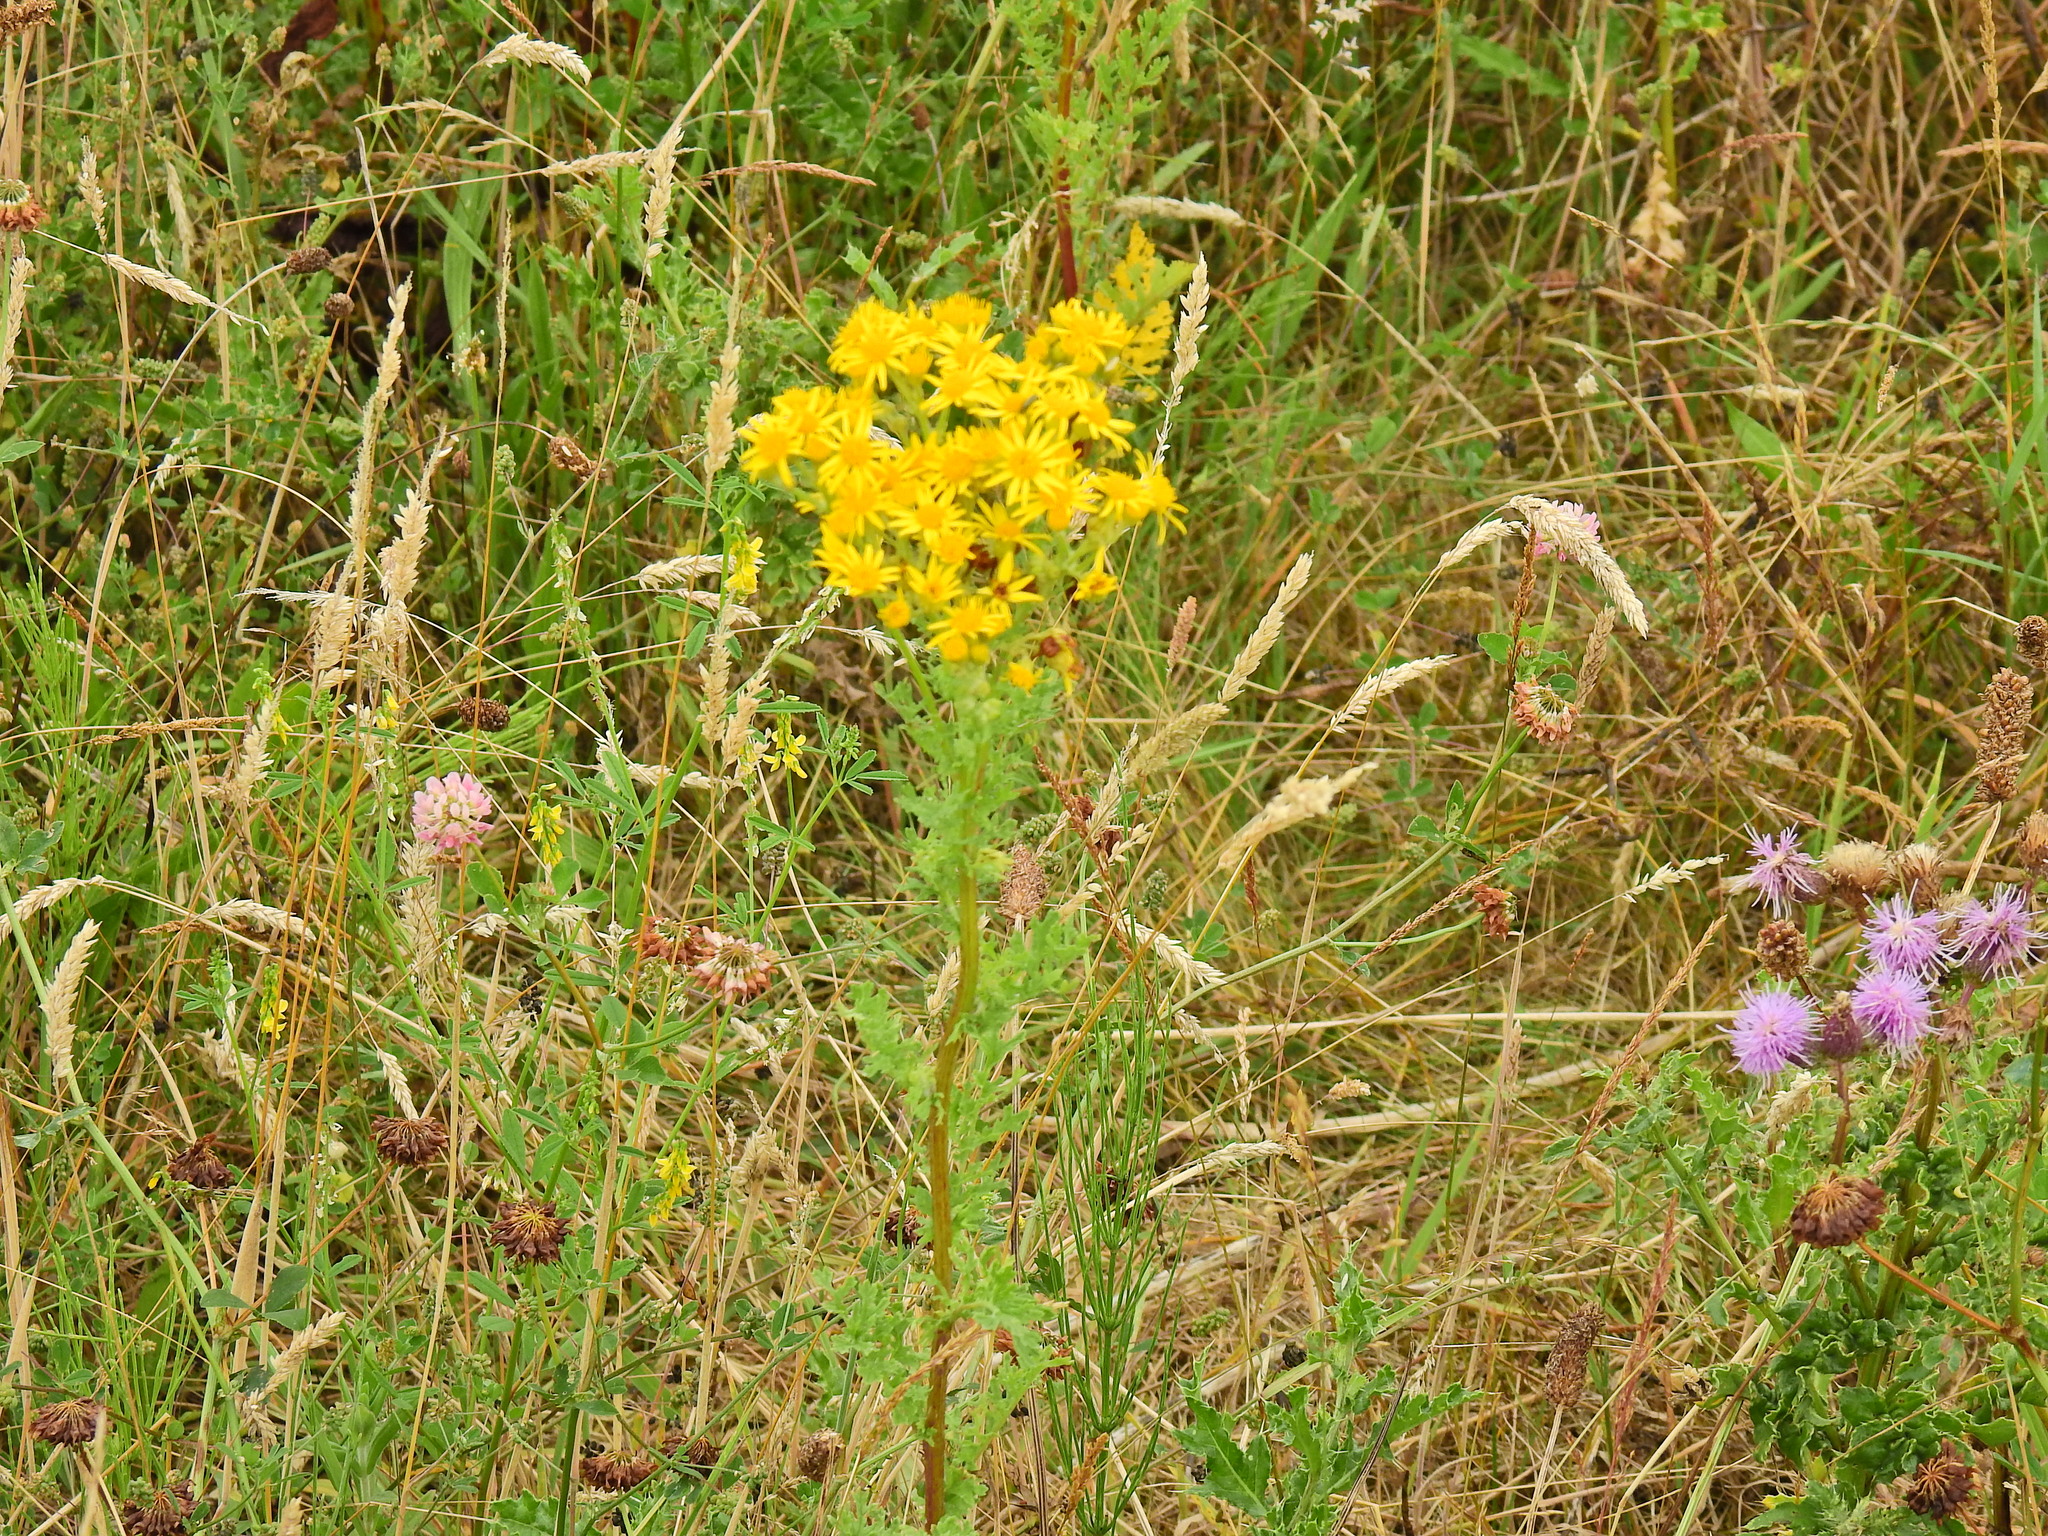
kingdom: Plantae
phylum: Tracheophyta
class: Magnoliopsida
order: Asterales
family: Asteraceae
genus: Jacobaea
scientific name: Jacobaea vulgaris
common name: Stinking willie
